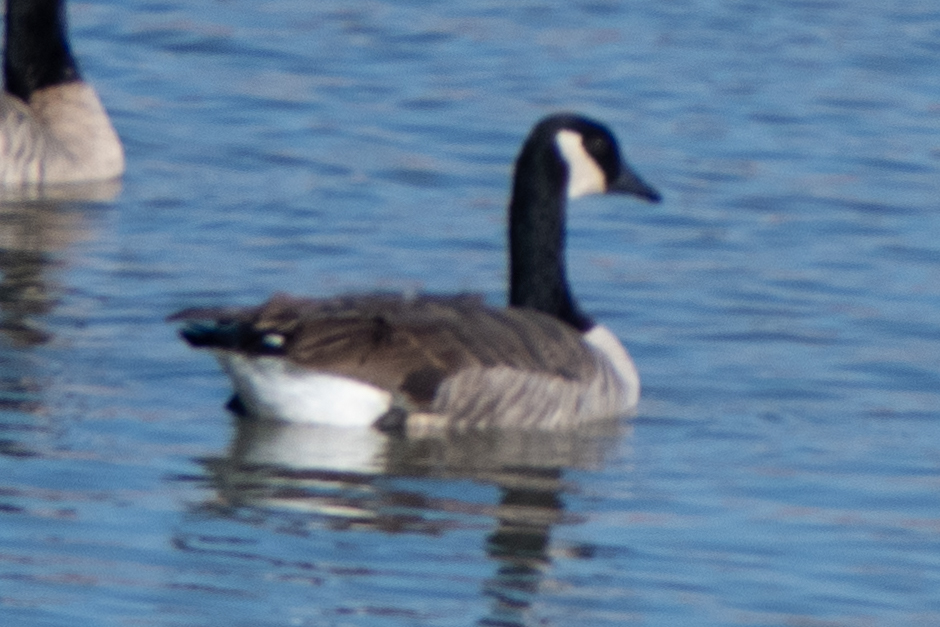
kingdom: Animalia
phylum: Chordata
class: Aves
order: Anseriformes
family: Anatidae
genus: Branta
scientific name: Branta canadensis
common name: Canada goose
